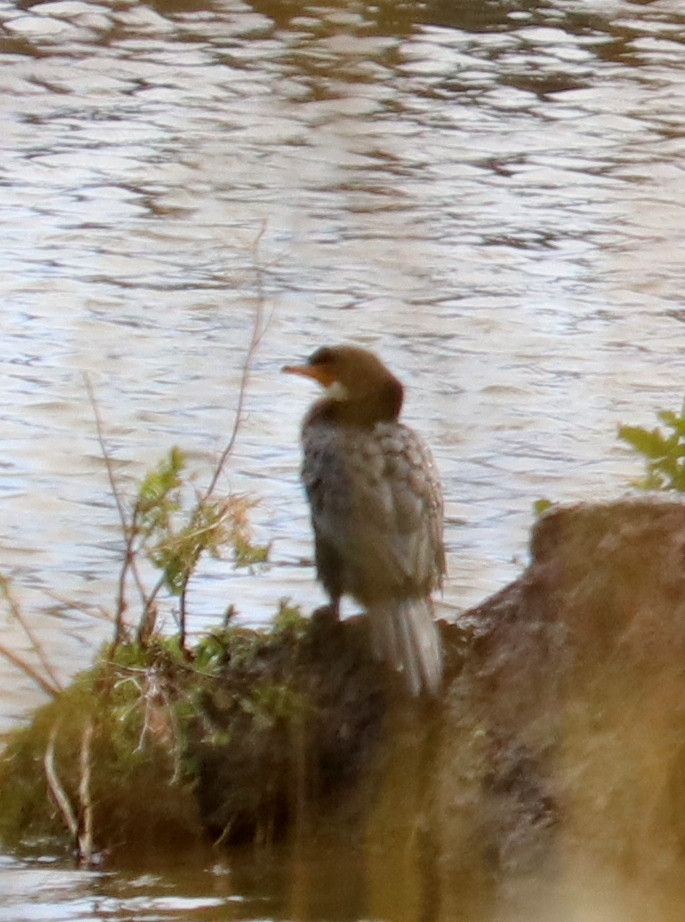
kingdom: Animalia
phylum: Chordata
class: Aves
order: Suliformes
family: Phalacrocoracidae
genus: Microcarbo
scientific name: Microcarbo africanus
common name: Long-tailed cormorant
